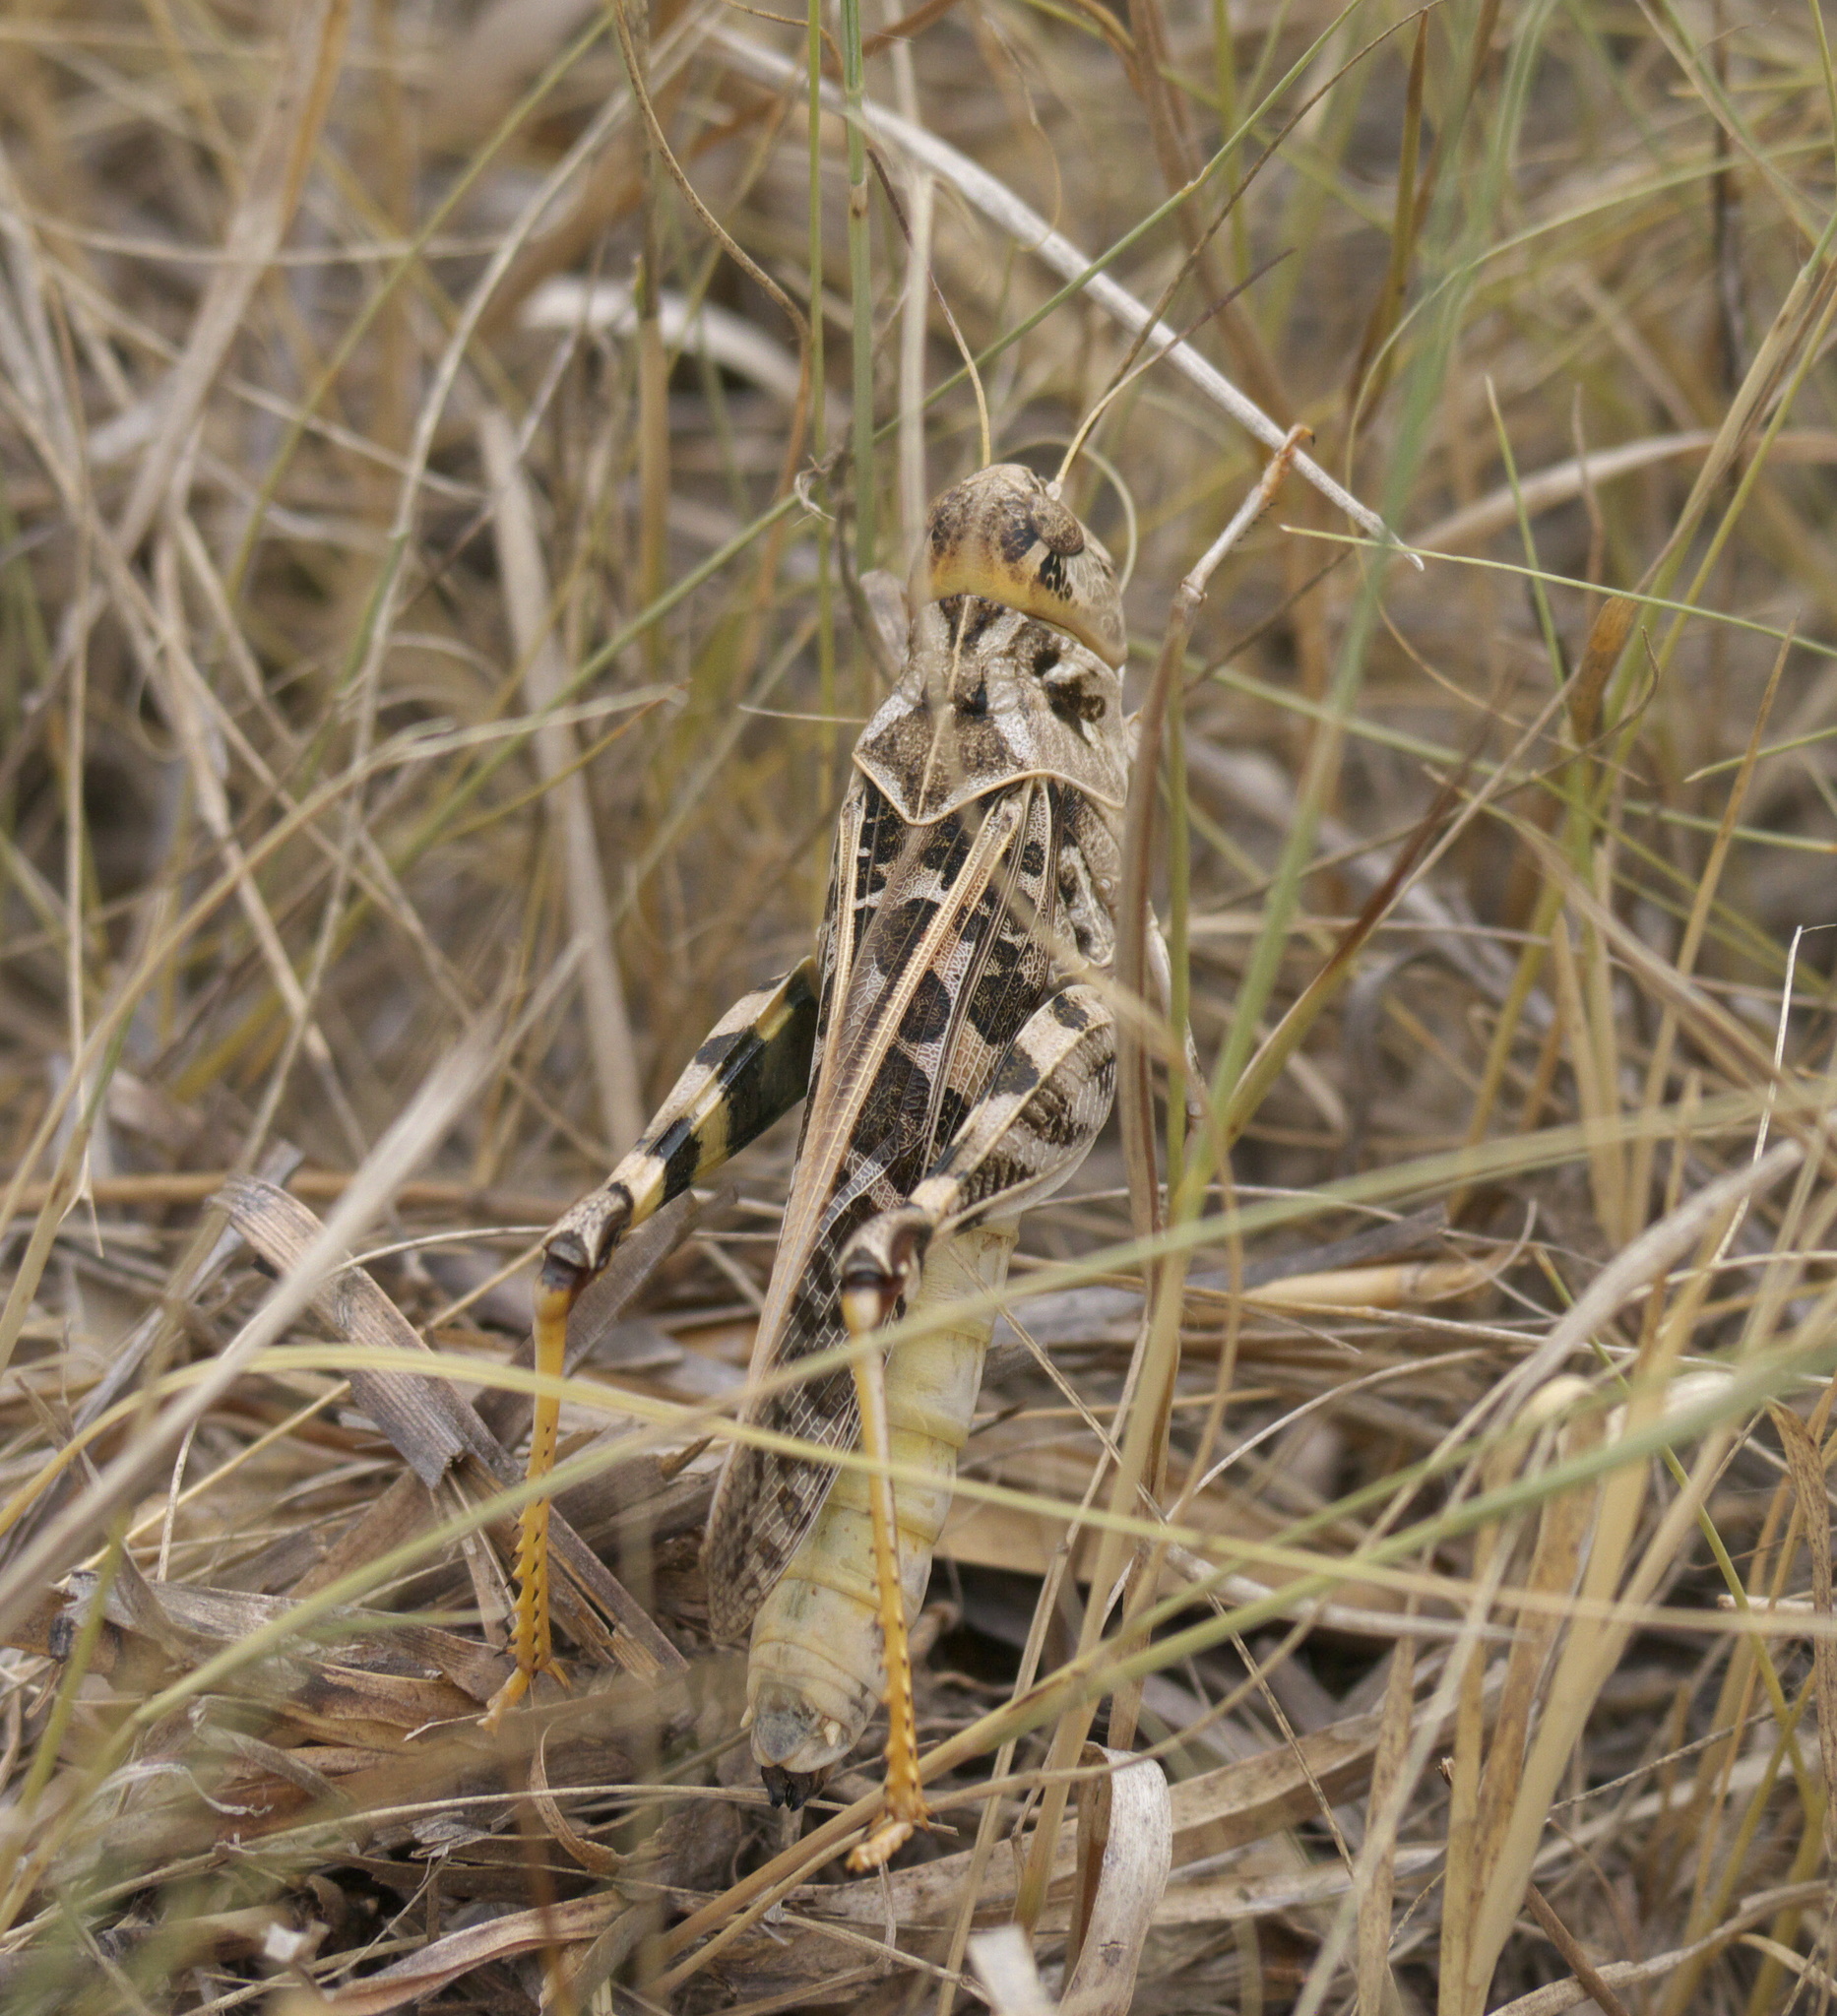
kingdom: Animalia
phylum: Arthropoda
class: Insecta
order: Orthoptera
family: Acrididae
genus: Hippiscus
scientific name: Hippiscus ocelote
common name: Wrinkled grasshopper
